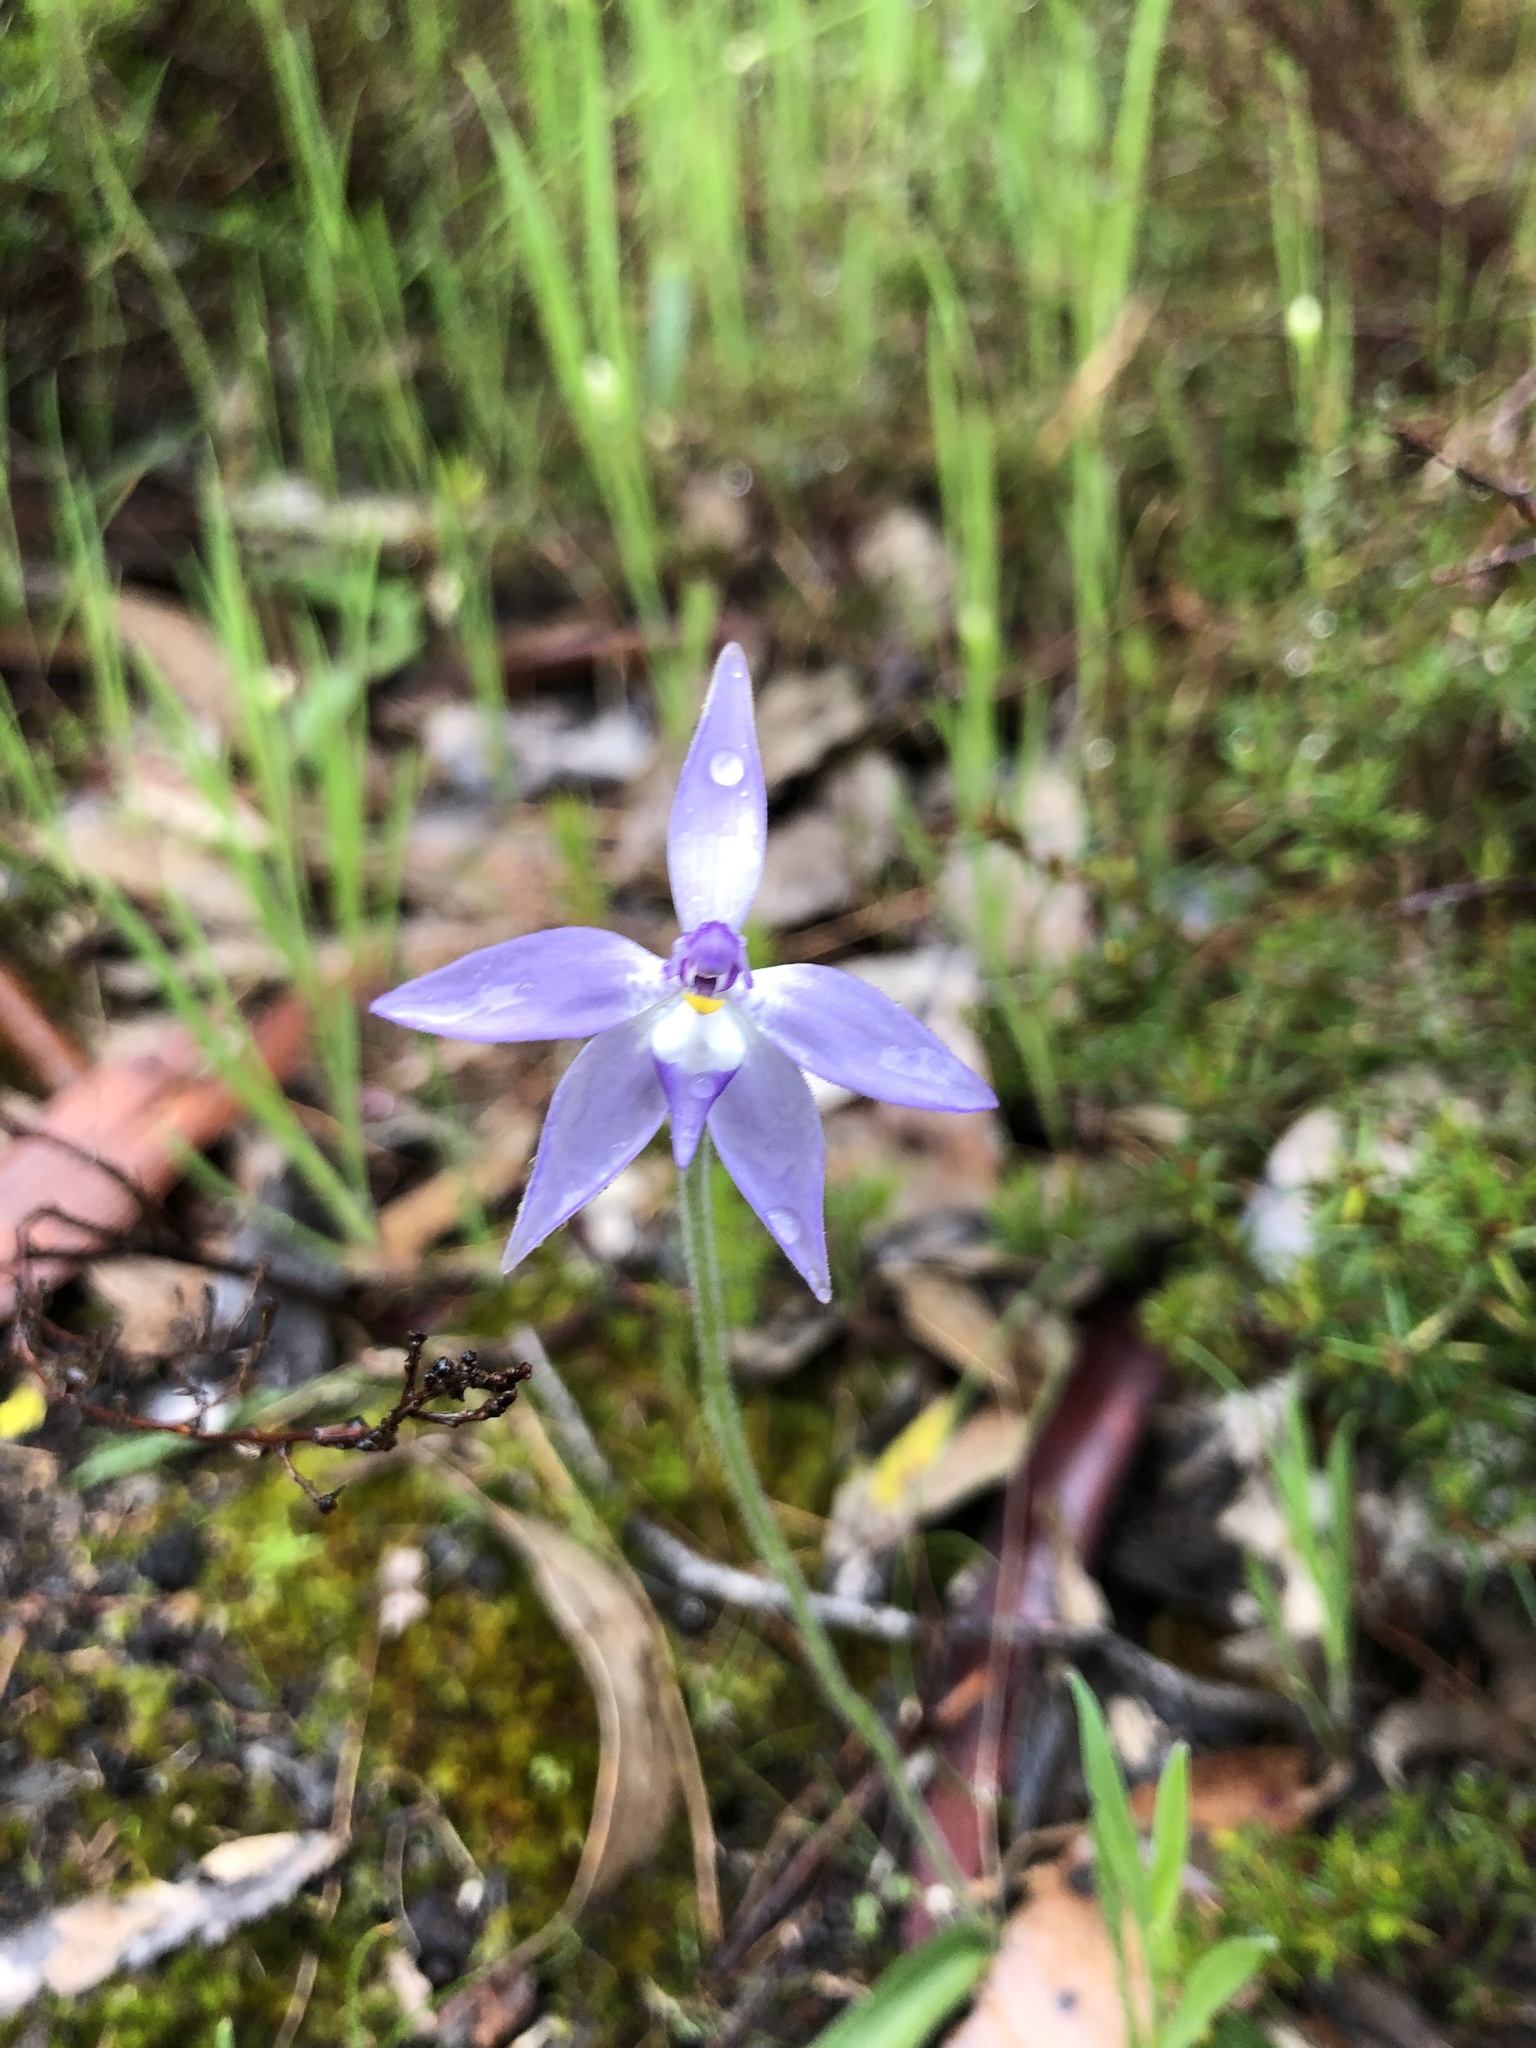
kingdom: Plantae
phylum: Tracheophyta
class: Liliopsida
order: Asparagales
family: Orchidaceae
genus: Caladenia
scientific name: Caladenia major
